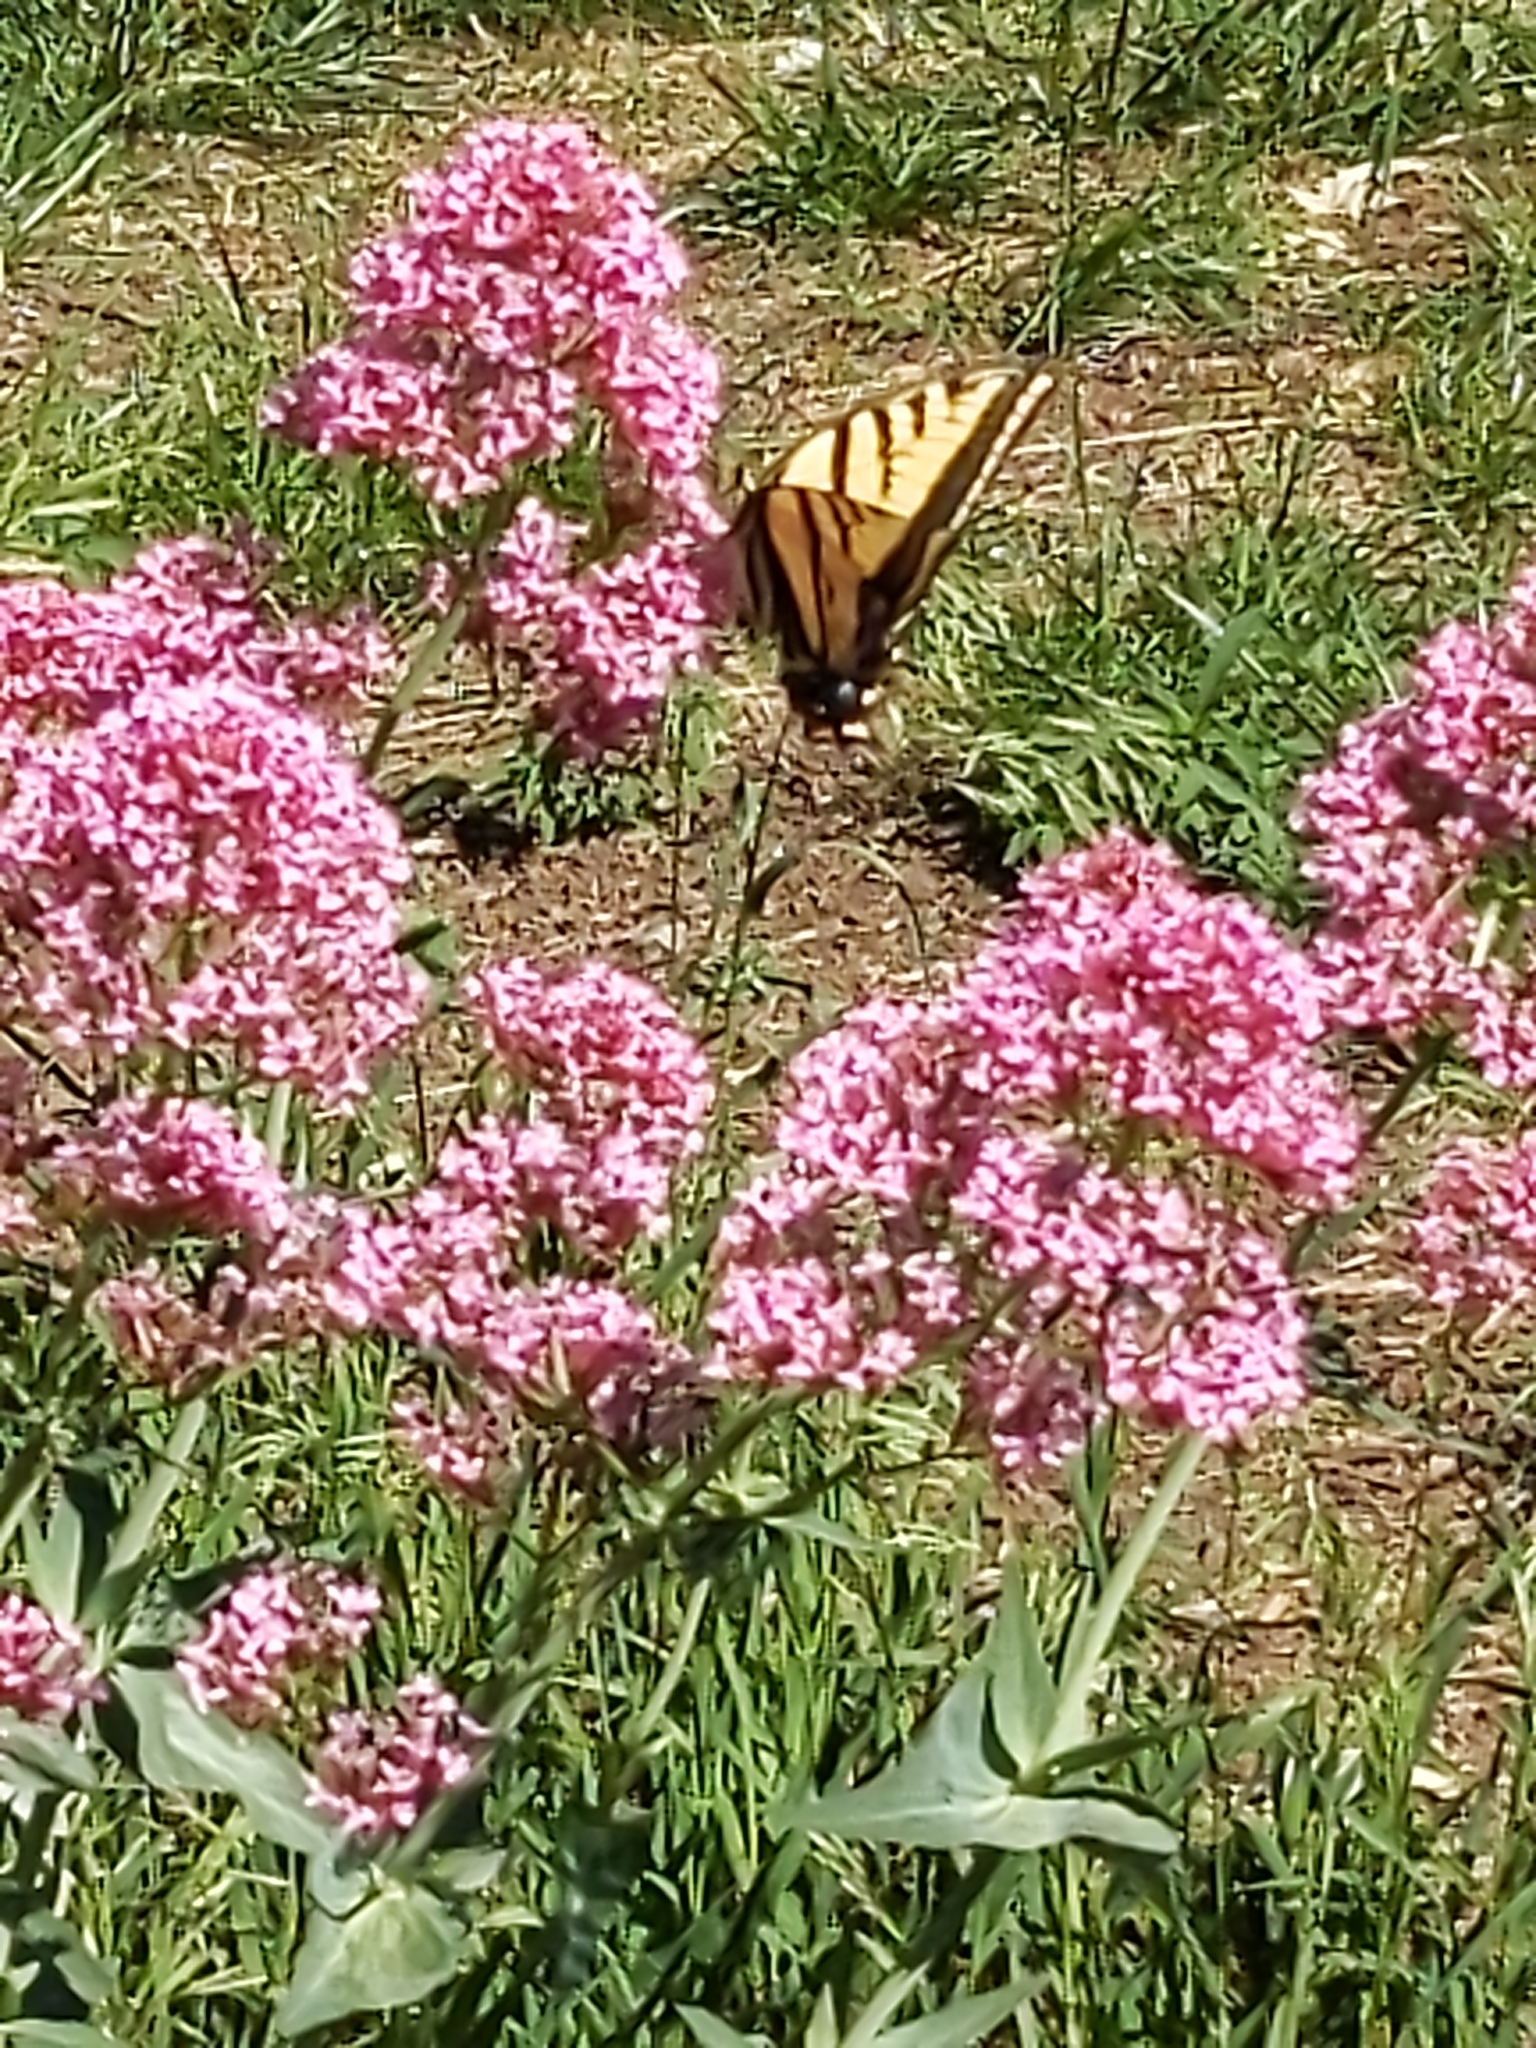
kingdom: Animalia
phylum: Arthropoda
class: Insecta
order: Lepidoptera
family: Papilionidae
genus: Papilio
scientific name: Papilio multicaudata
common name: Two-tailed tiger swallowtail
